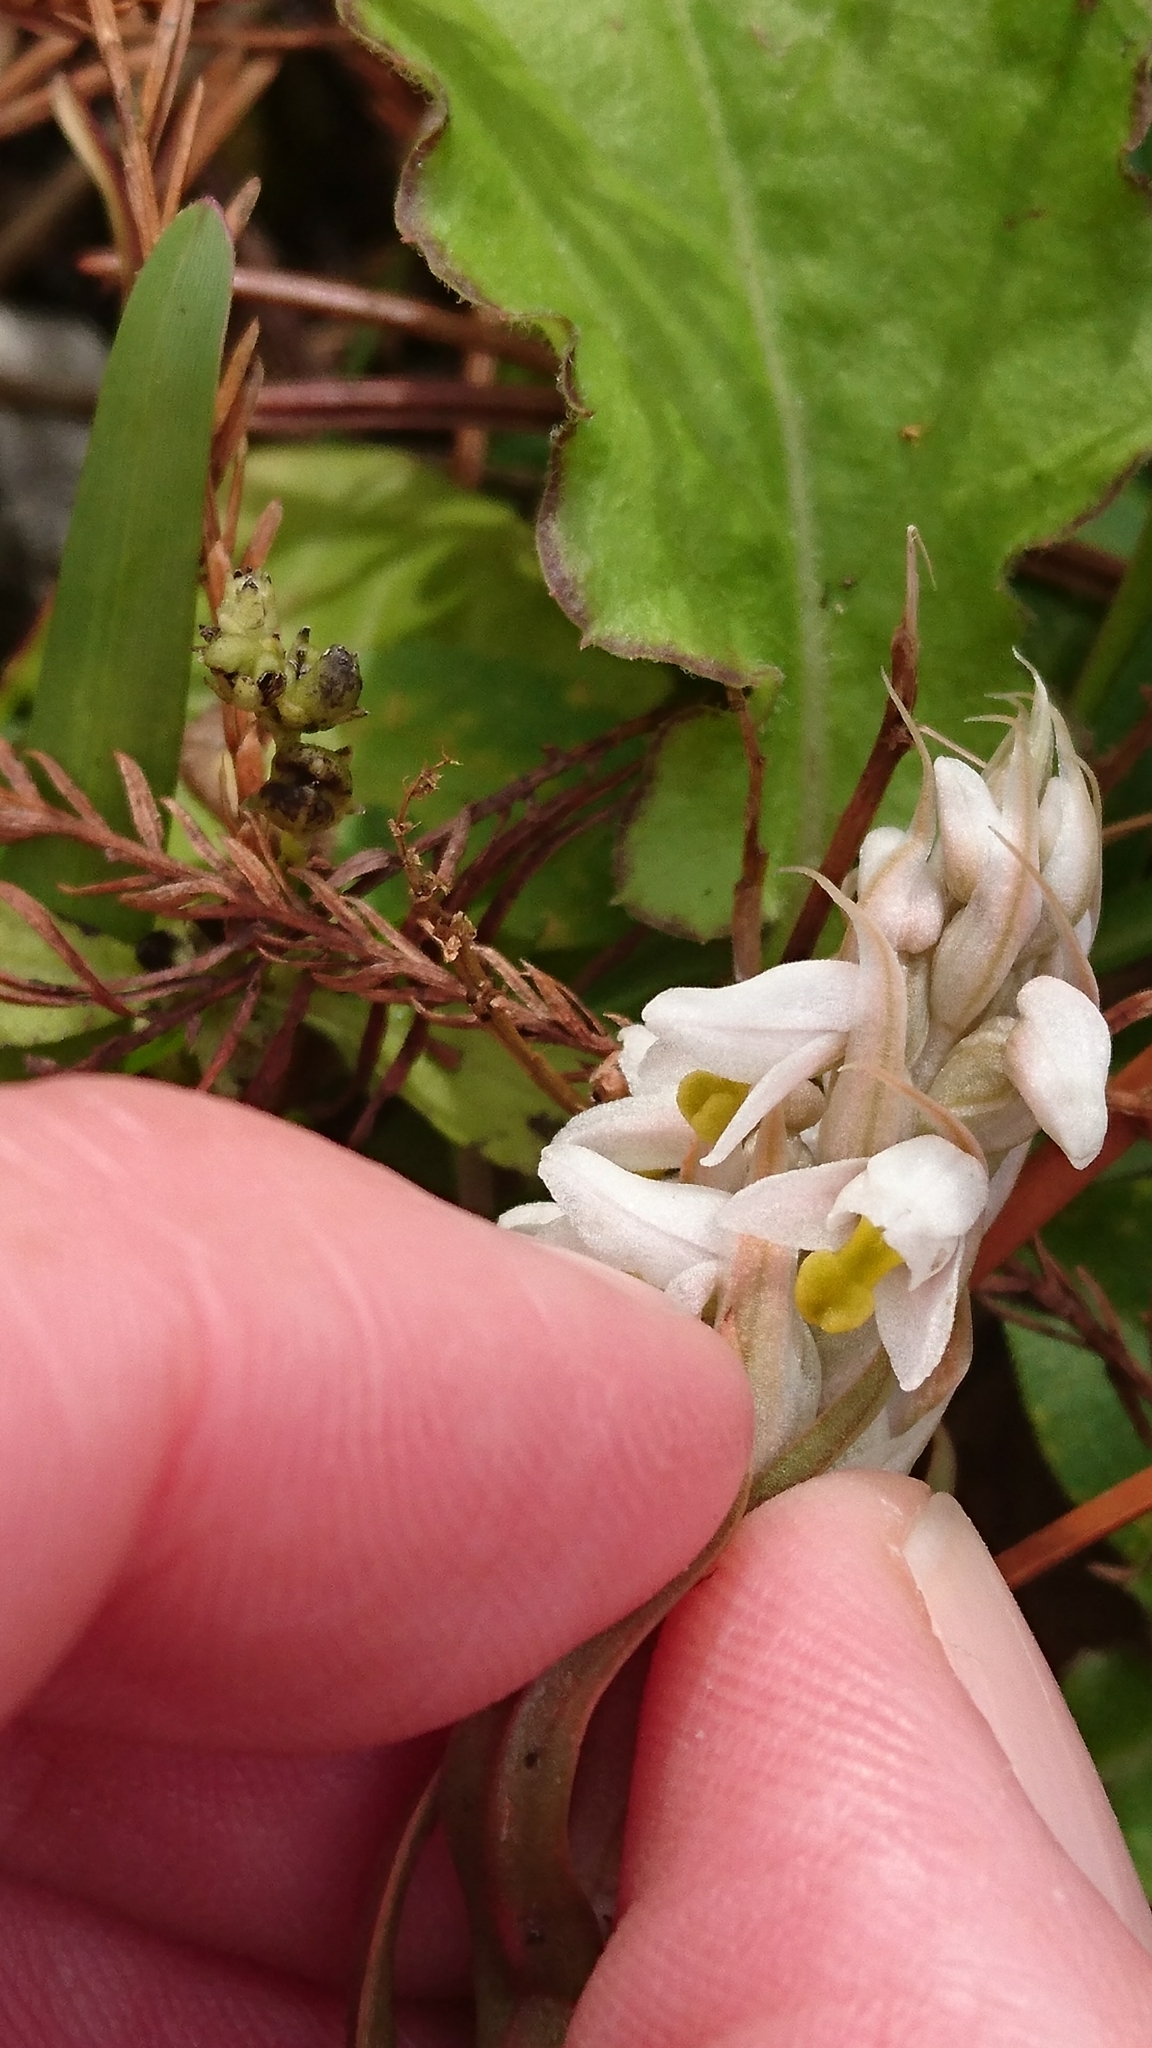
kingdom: Plantae
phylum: Tracheophyta
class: Liliopsida
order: Asparagales
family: Orchidaceae
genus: Zeuxine
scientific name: Zeuxine strateumatica
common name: Soldier's orchid
